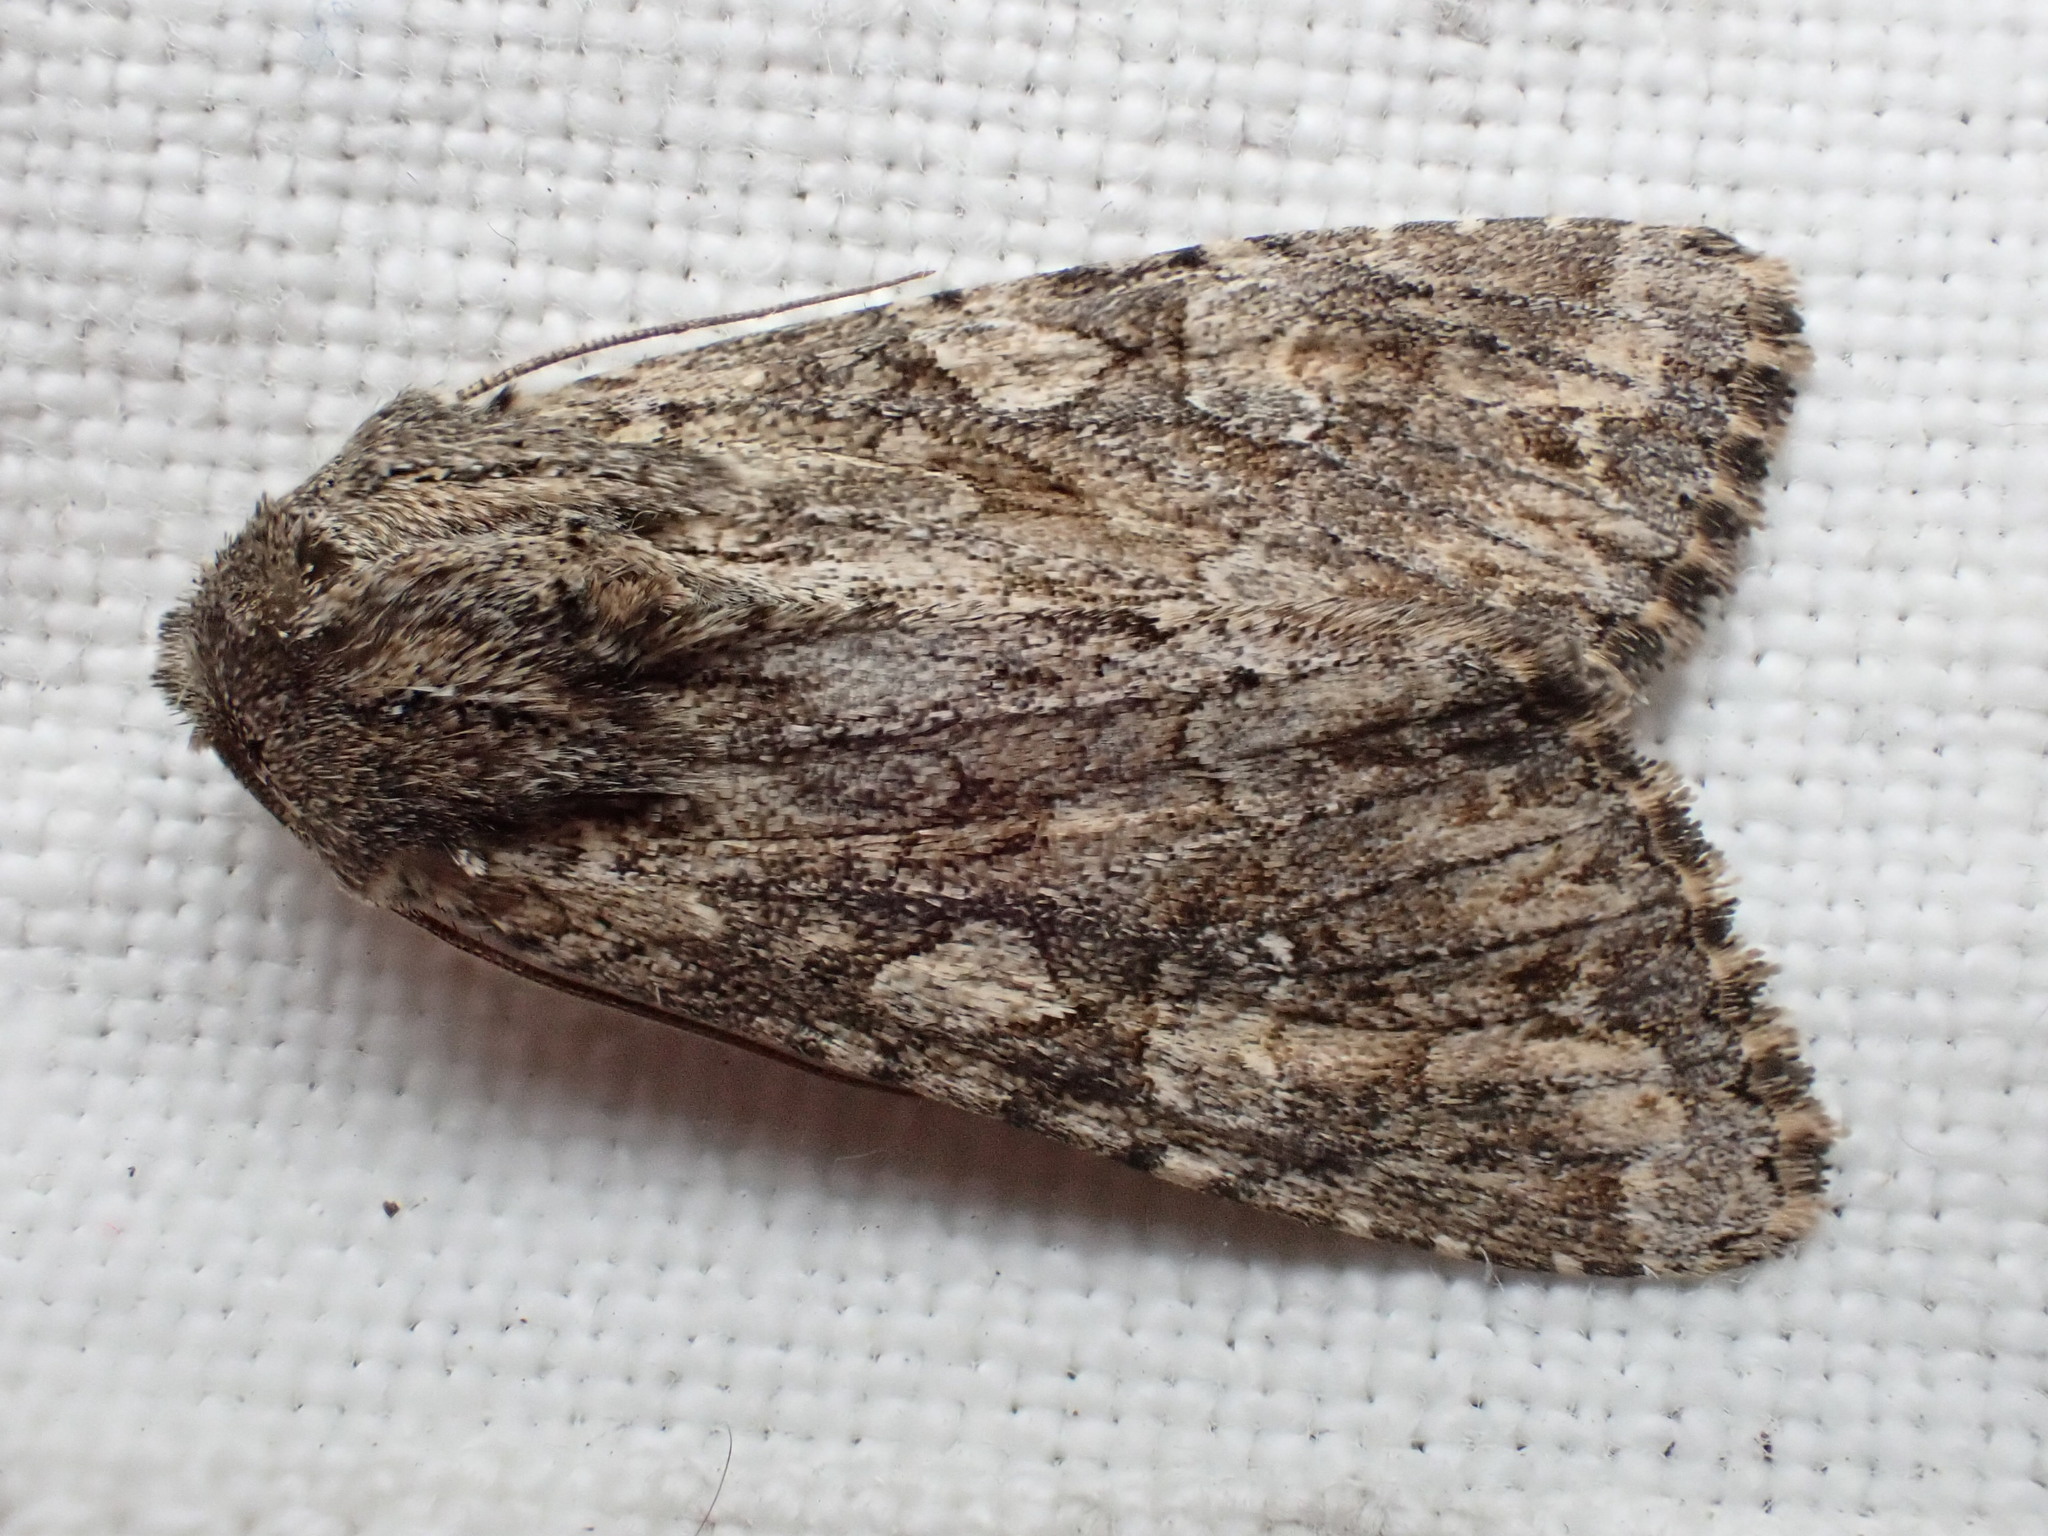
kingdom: Animalia
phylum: Arthropoda
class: Insecta
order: Lepidoptera
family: Noctuidae
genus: Apamea
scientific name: Apamea anceps
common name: Large nutmeg
